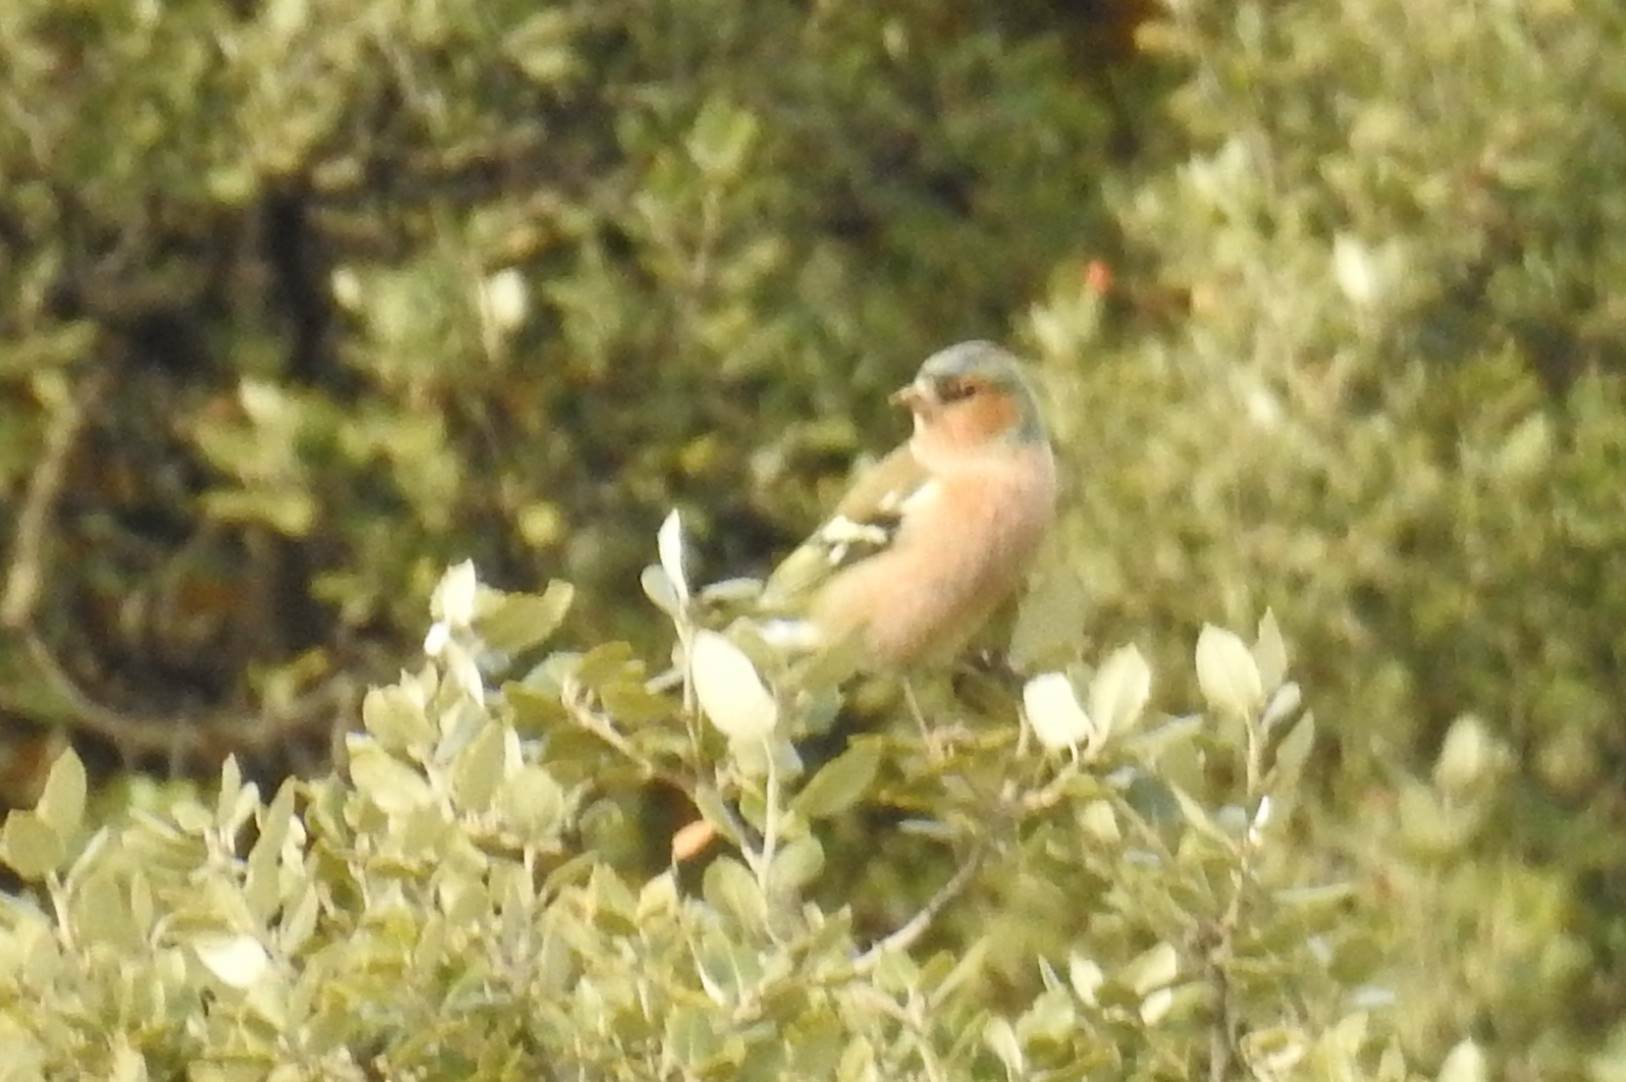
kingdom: Animalia
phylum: Chordata
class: Aves
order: Passeriformes
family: Fringillidae
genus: Fringilla
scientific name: Fringilla coelebs
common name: Common chaffinch
